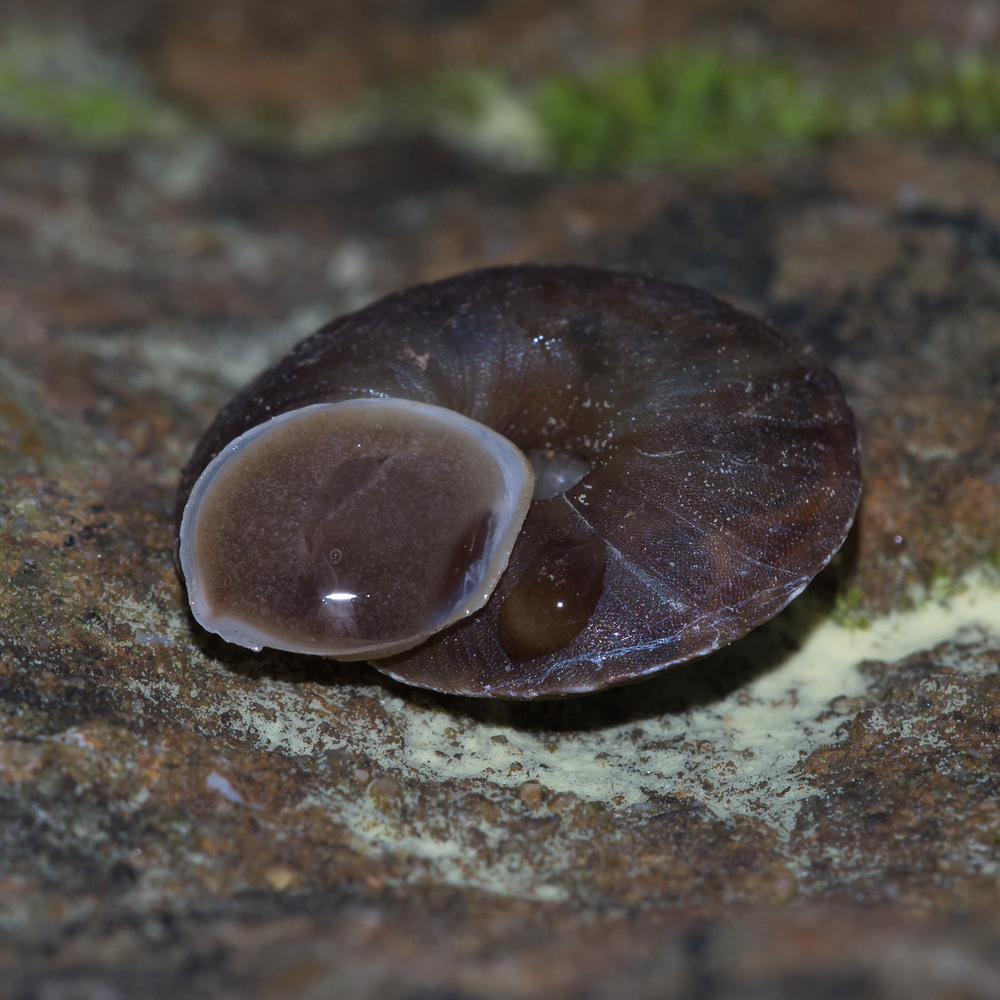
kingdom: Animalia
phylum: Mollusca
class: Gastropoda
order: Stylommatophora
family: Helicidae
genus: Helicigona
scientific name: Helicigona lapicida
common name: Lapidary snail
